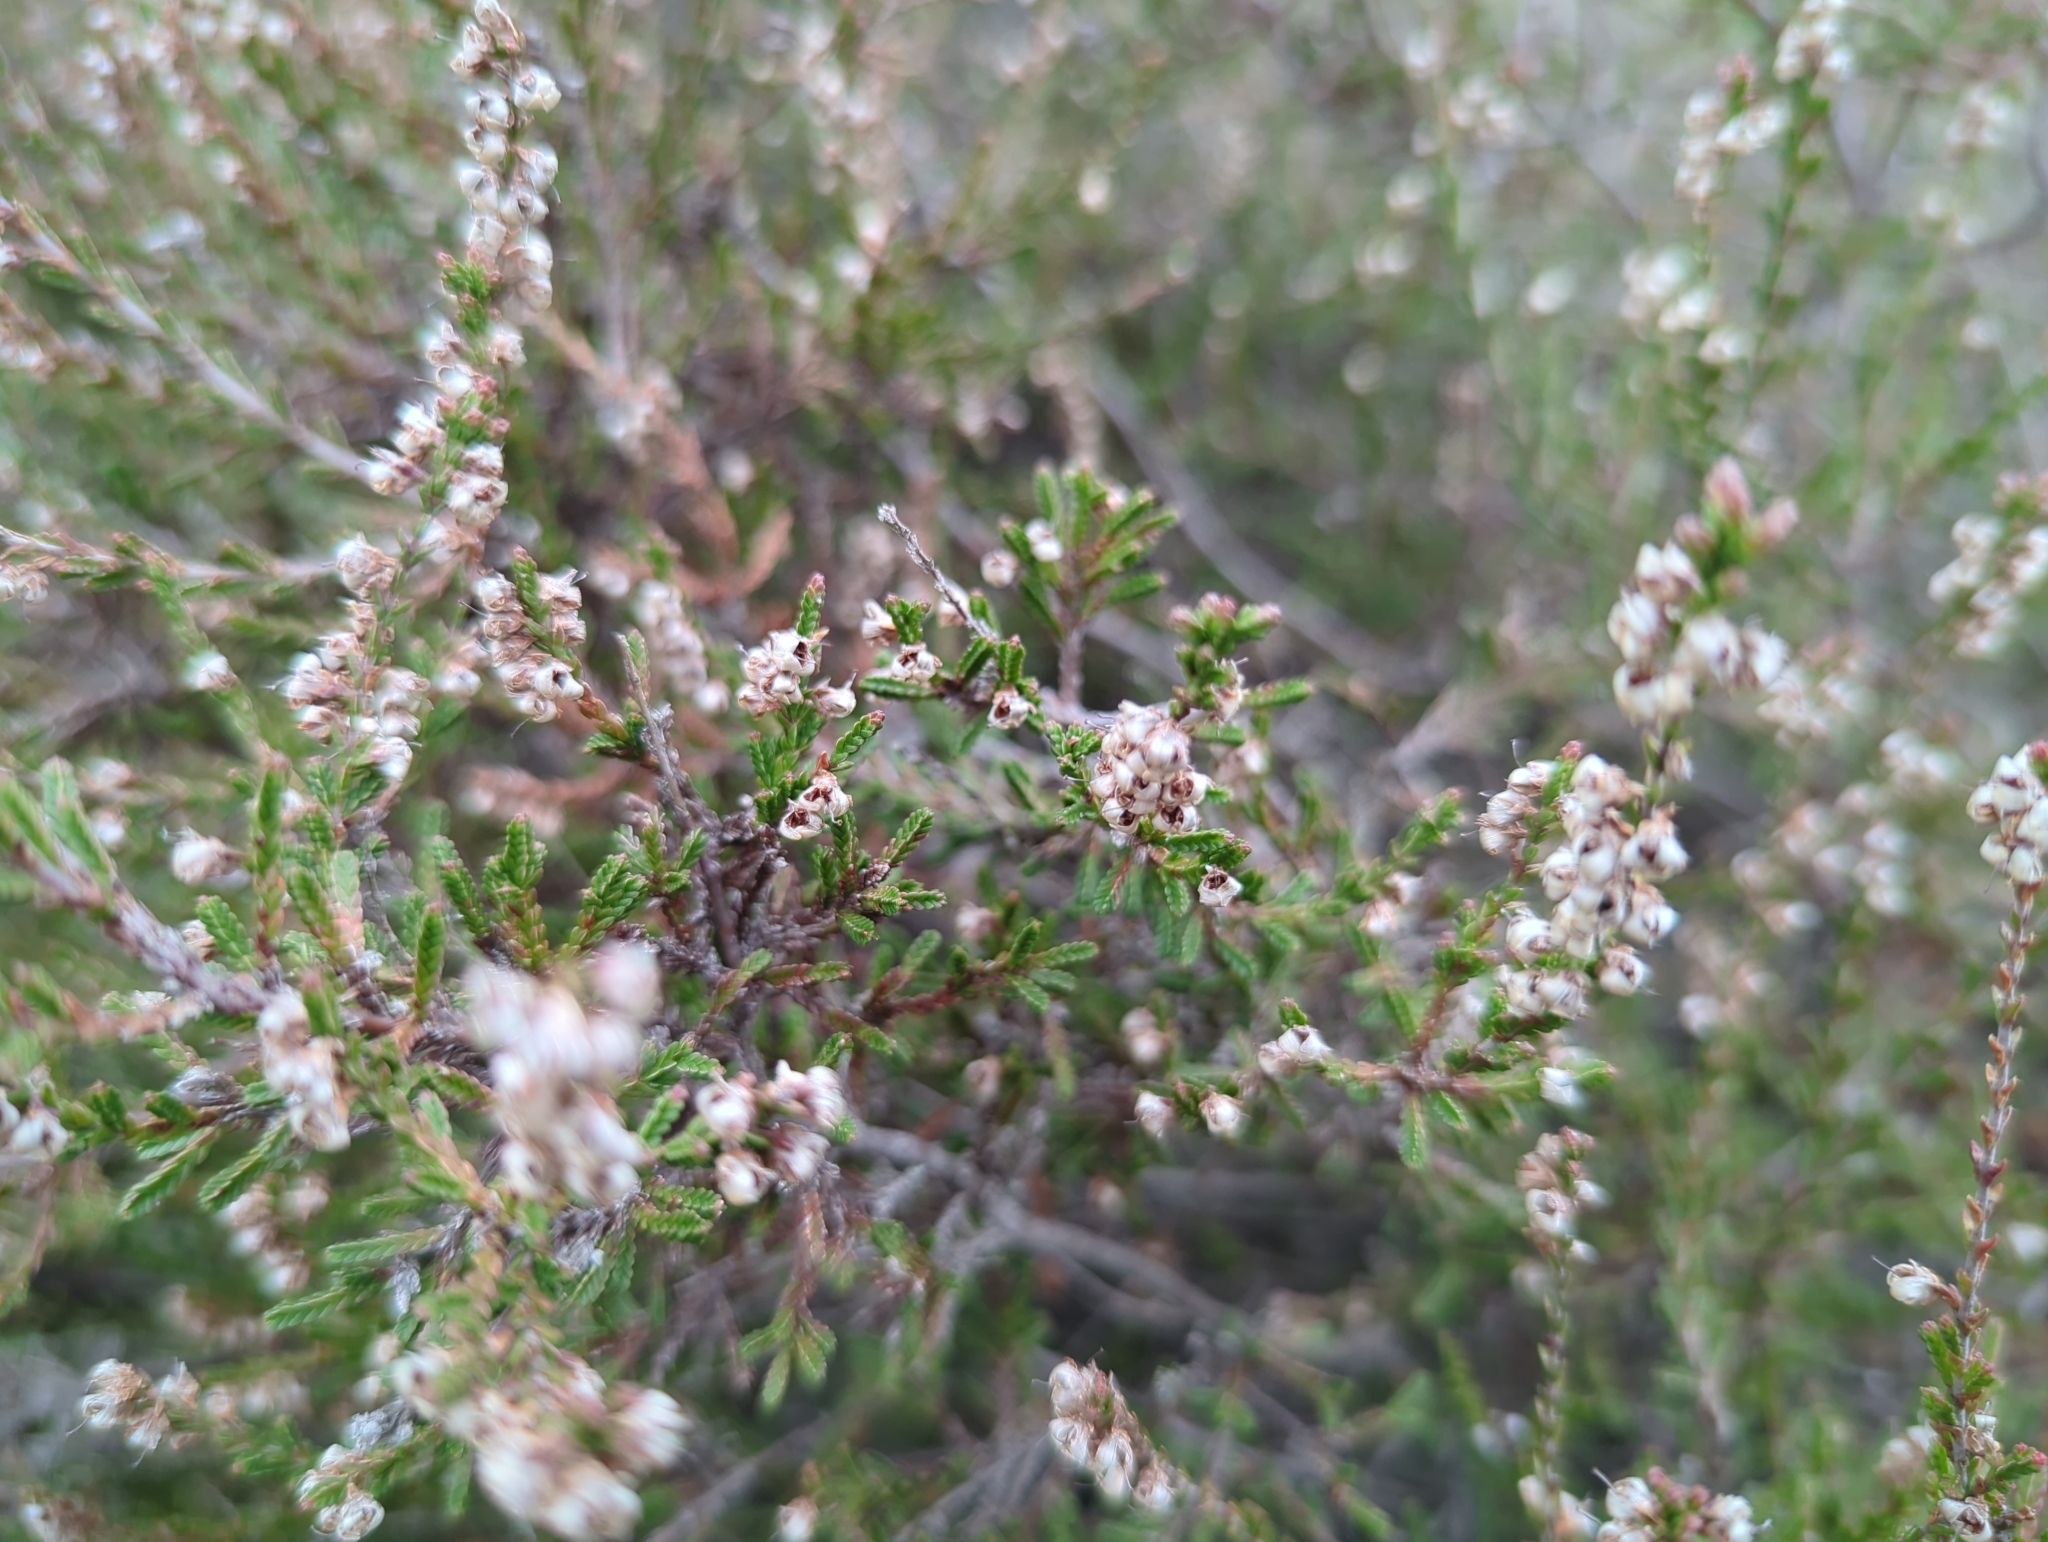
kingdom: Plantae
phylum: Tracheophyta
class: Magnoliopsida
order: Ericales
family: Ericaceae
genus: Calluna
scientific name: Calluna vulgaris
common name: Heather
